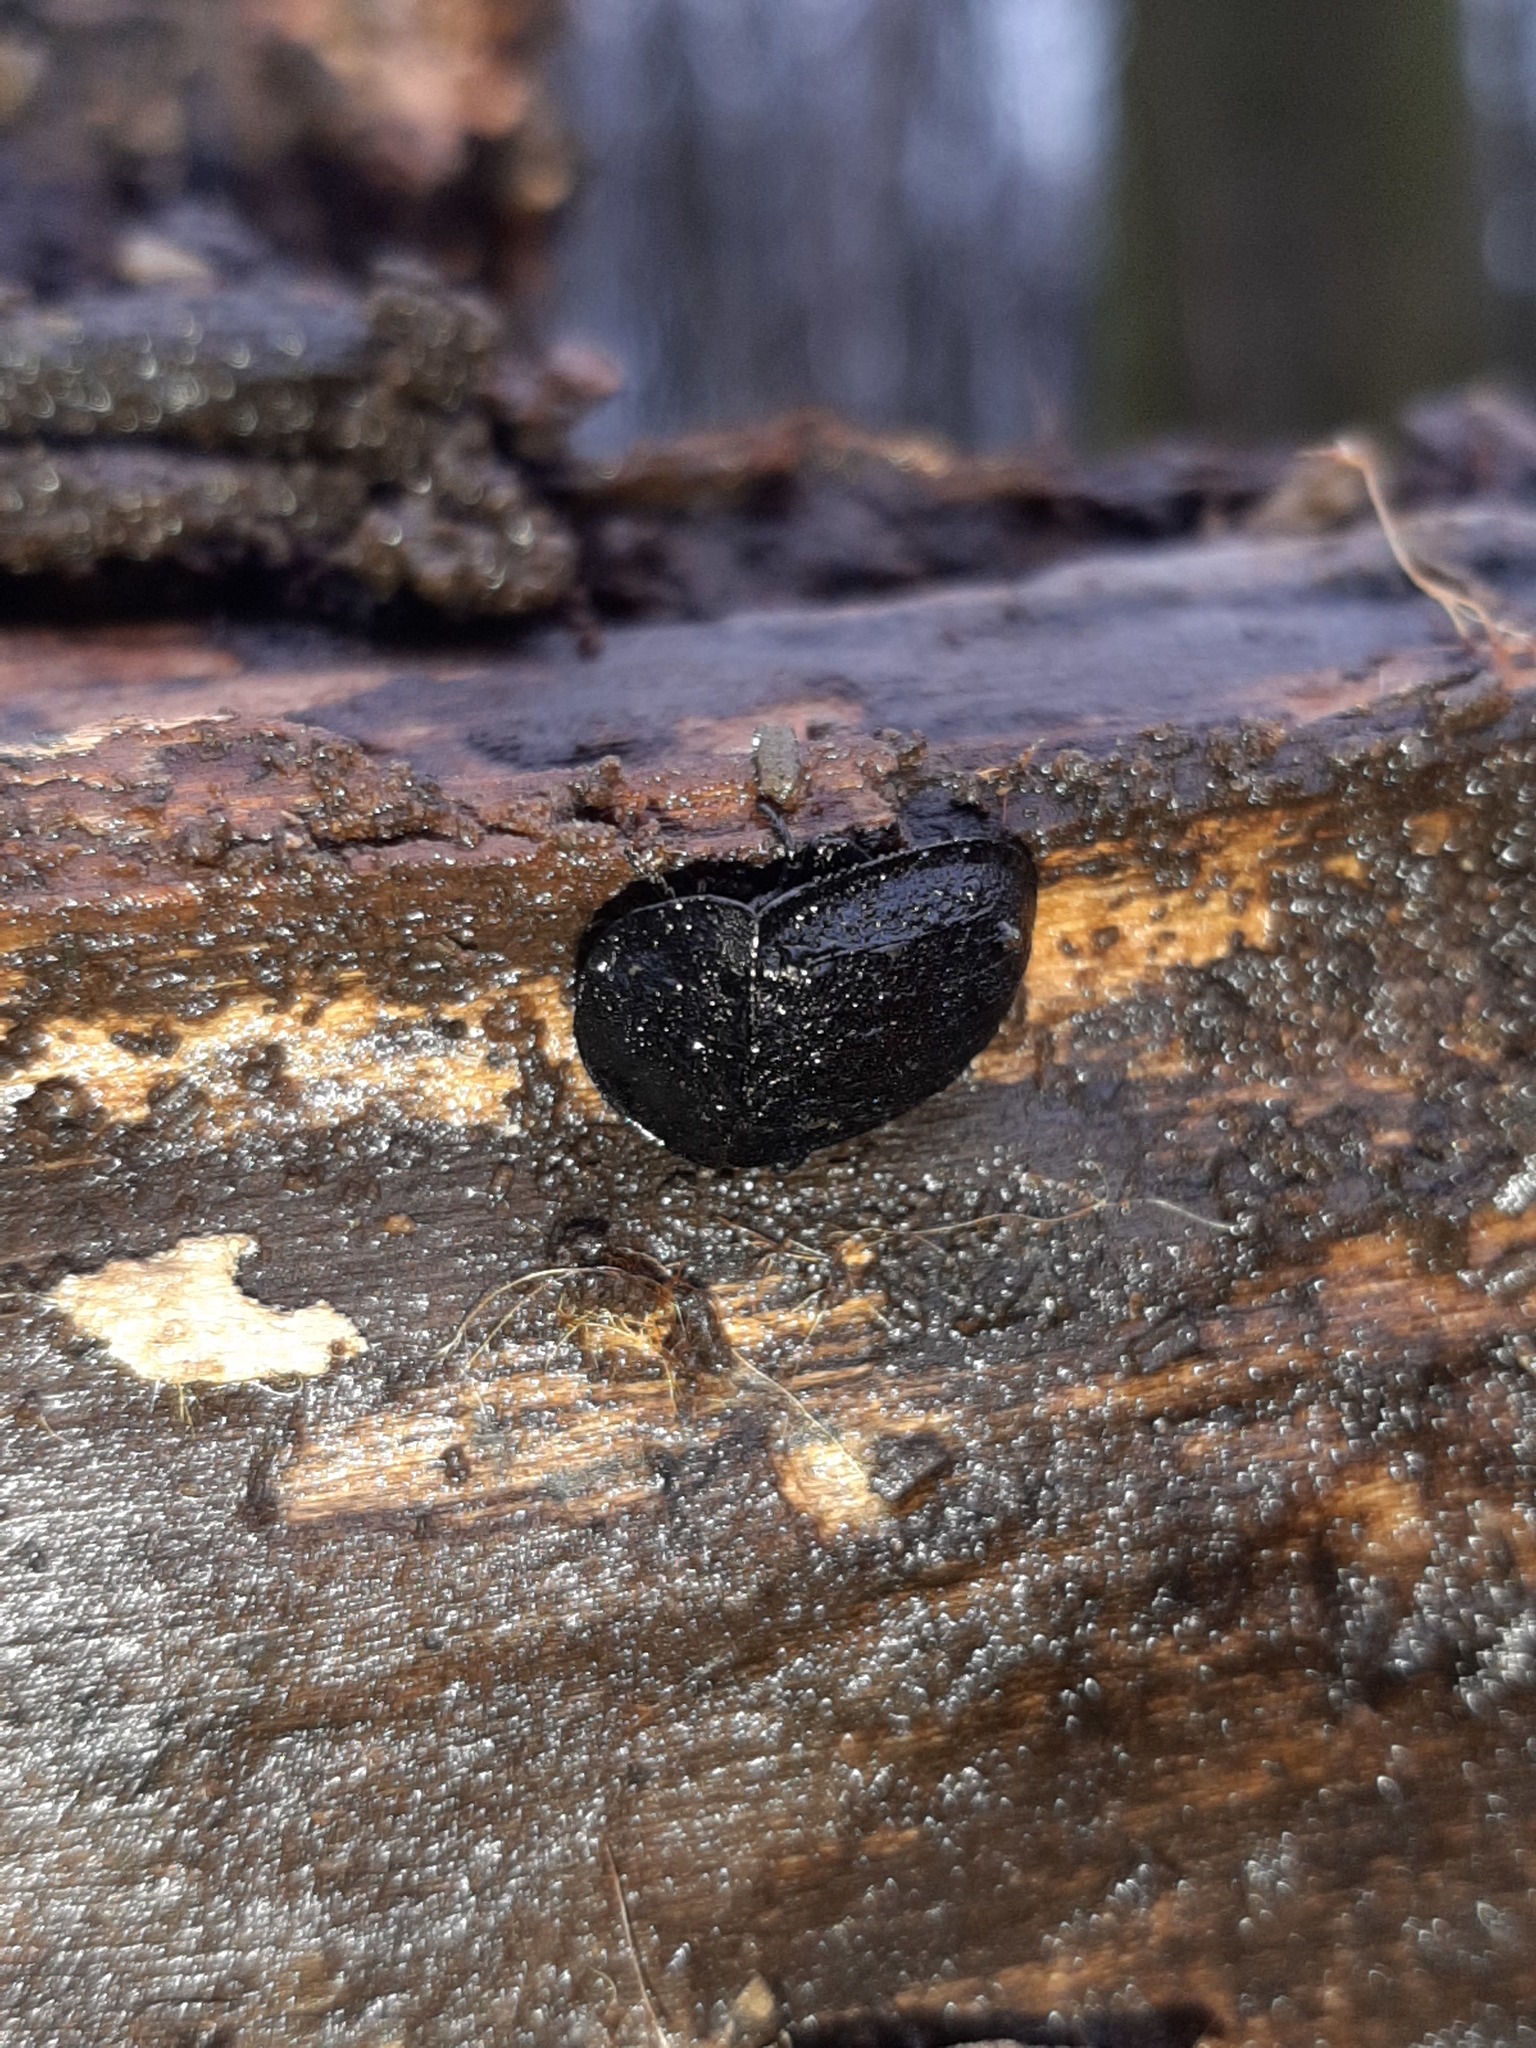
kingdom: Animalia
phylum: Arthropoda
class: Insecta
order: Coleoptera
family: Staphylinidae
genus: Silpha
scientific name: Silpha atrata
